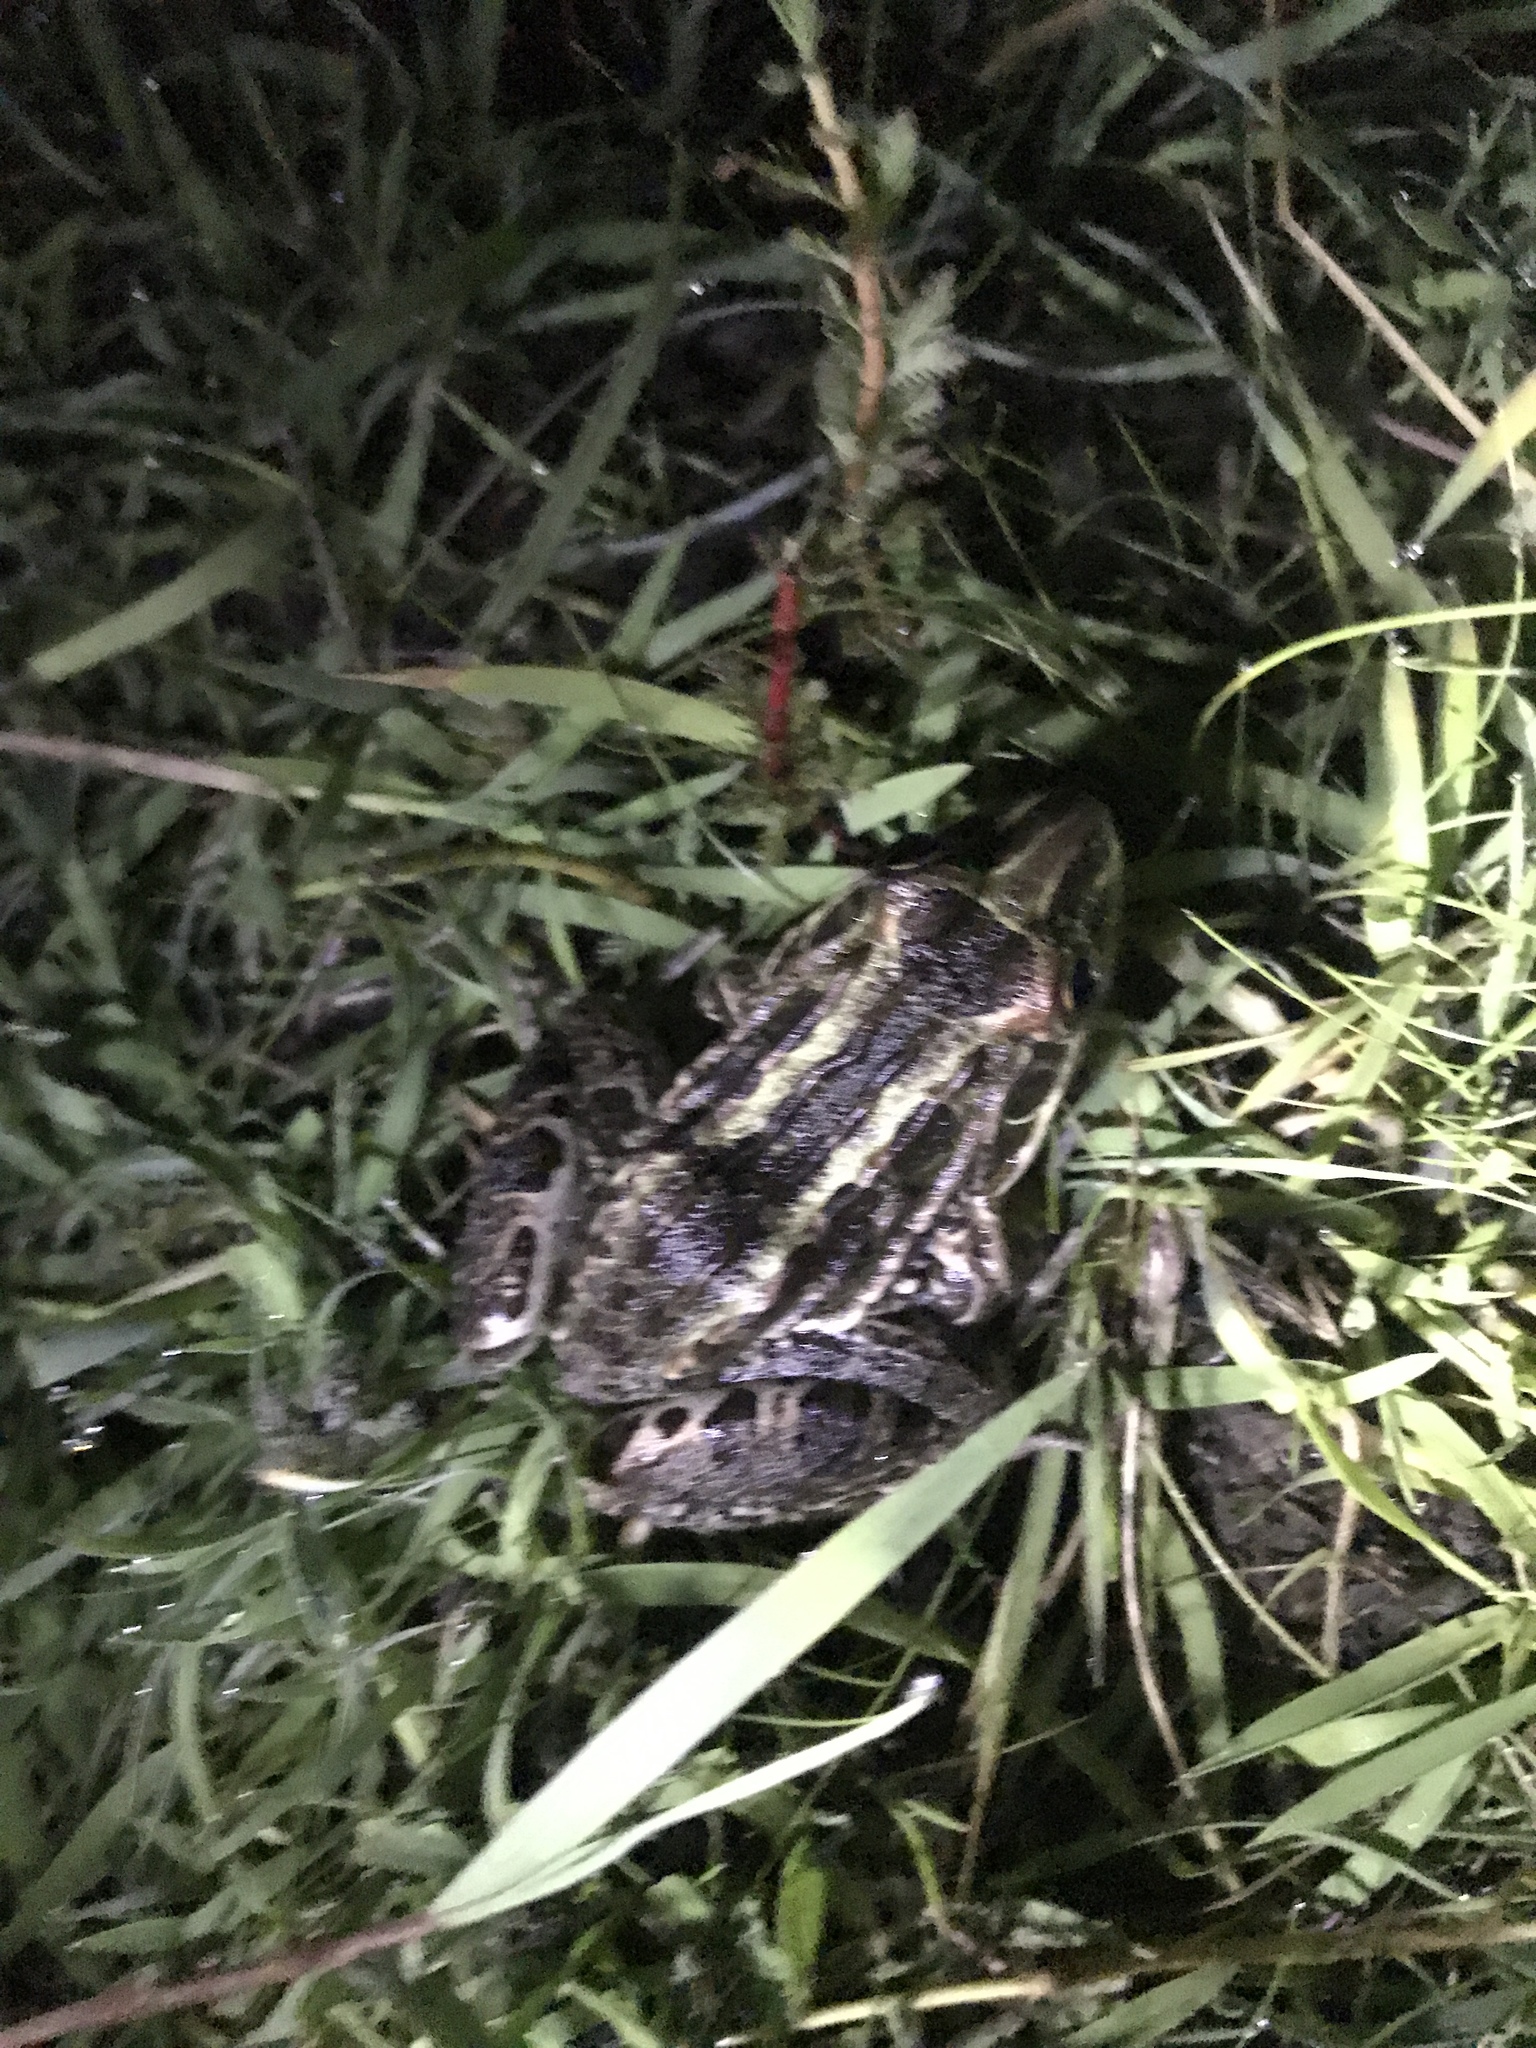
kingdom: Animalia
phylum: Chordata
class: Amphibia
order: Anura
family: Leptodactylidae
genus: Leptodactylus
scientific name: Leptodactylus luctator
